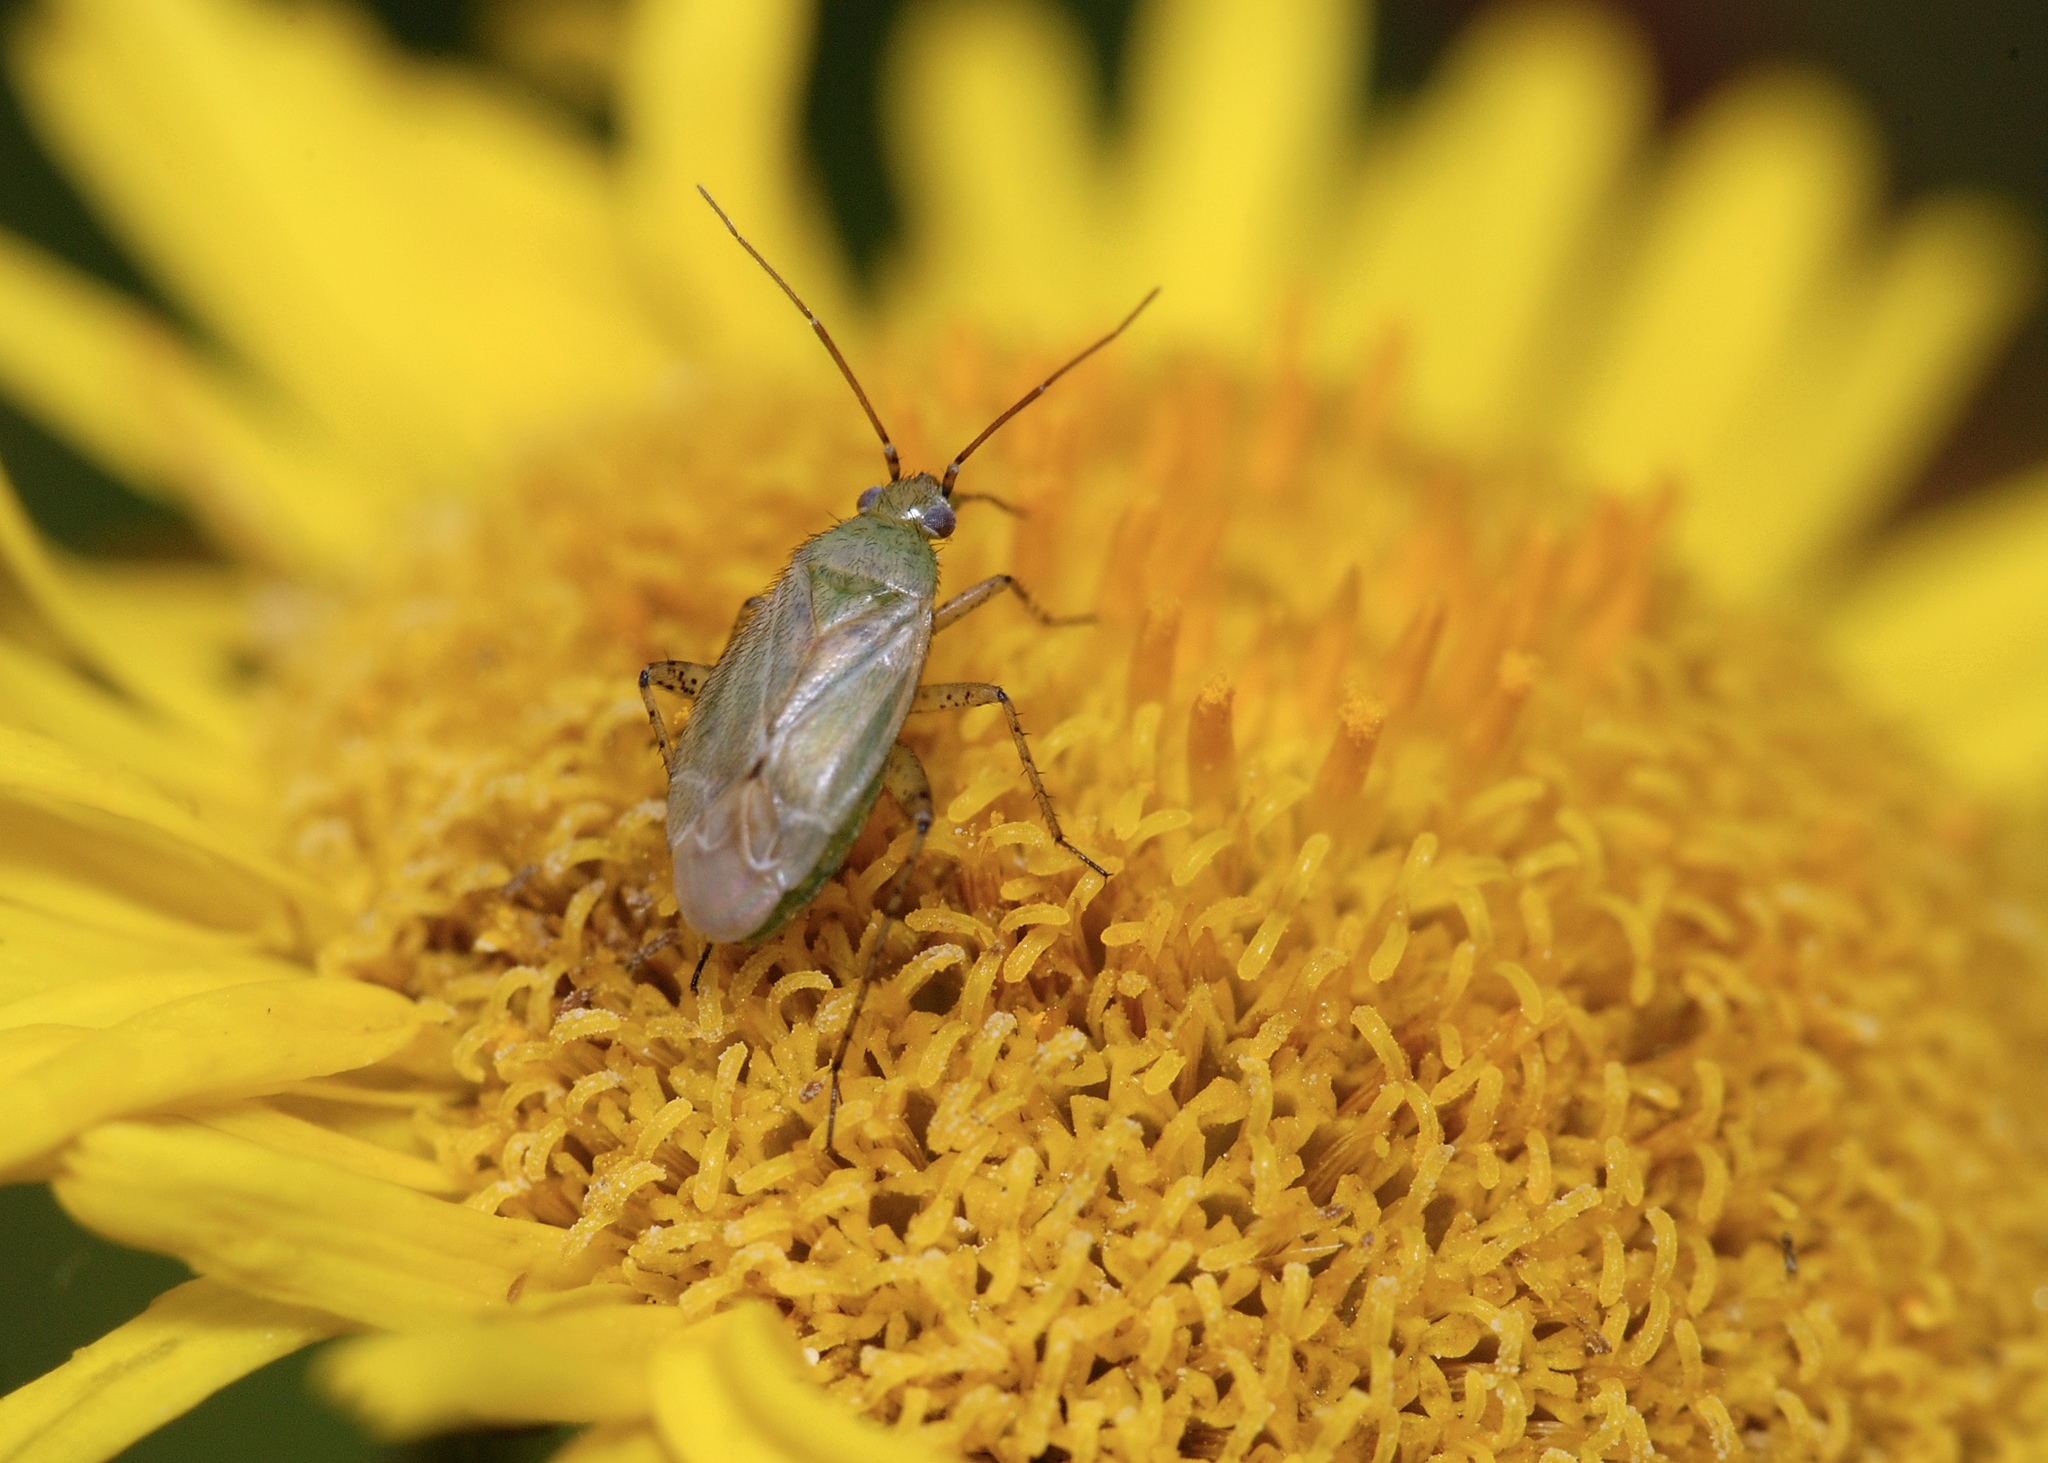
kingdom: Animalia
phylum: Arthropoda
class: Insecta
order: Hemiptera
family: Miridae
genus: Plagiognathus
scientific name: Plagiognathus chrysanthemi
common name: Plant bug
